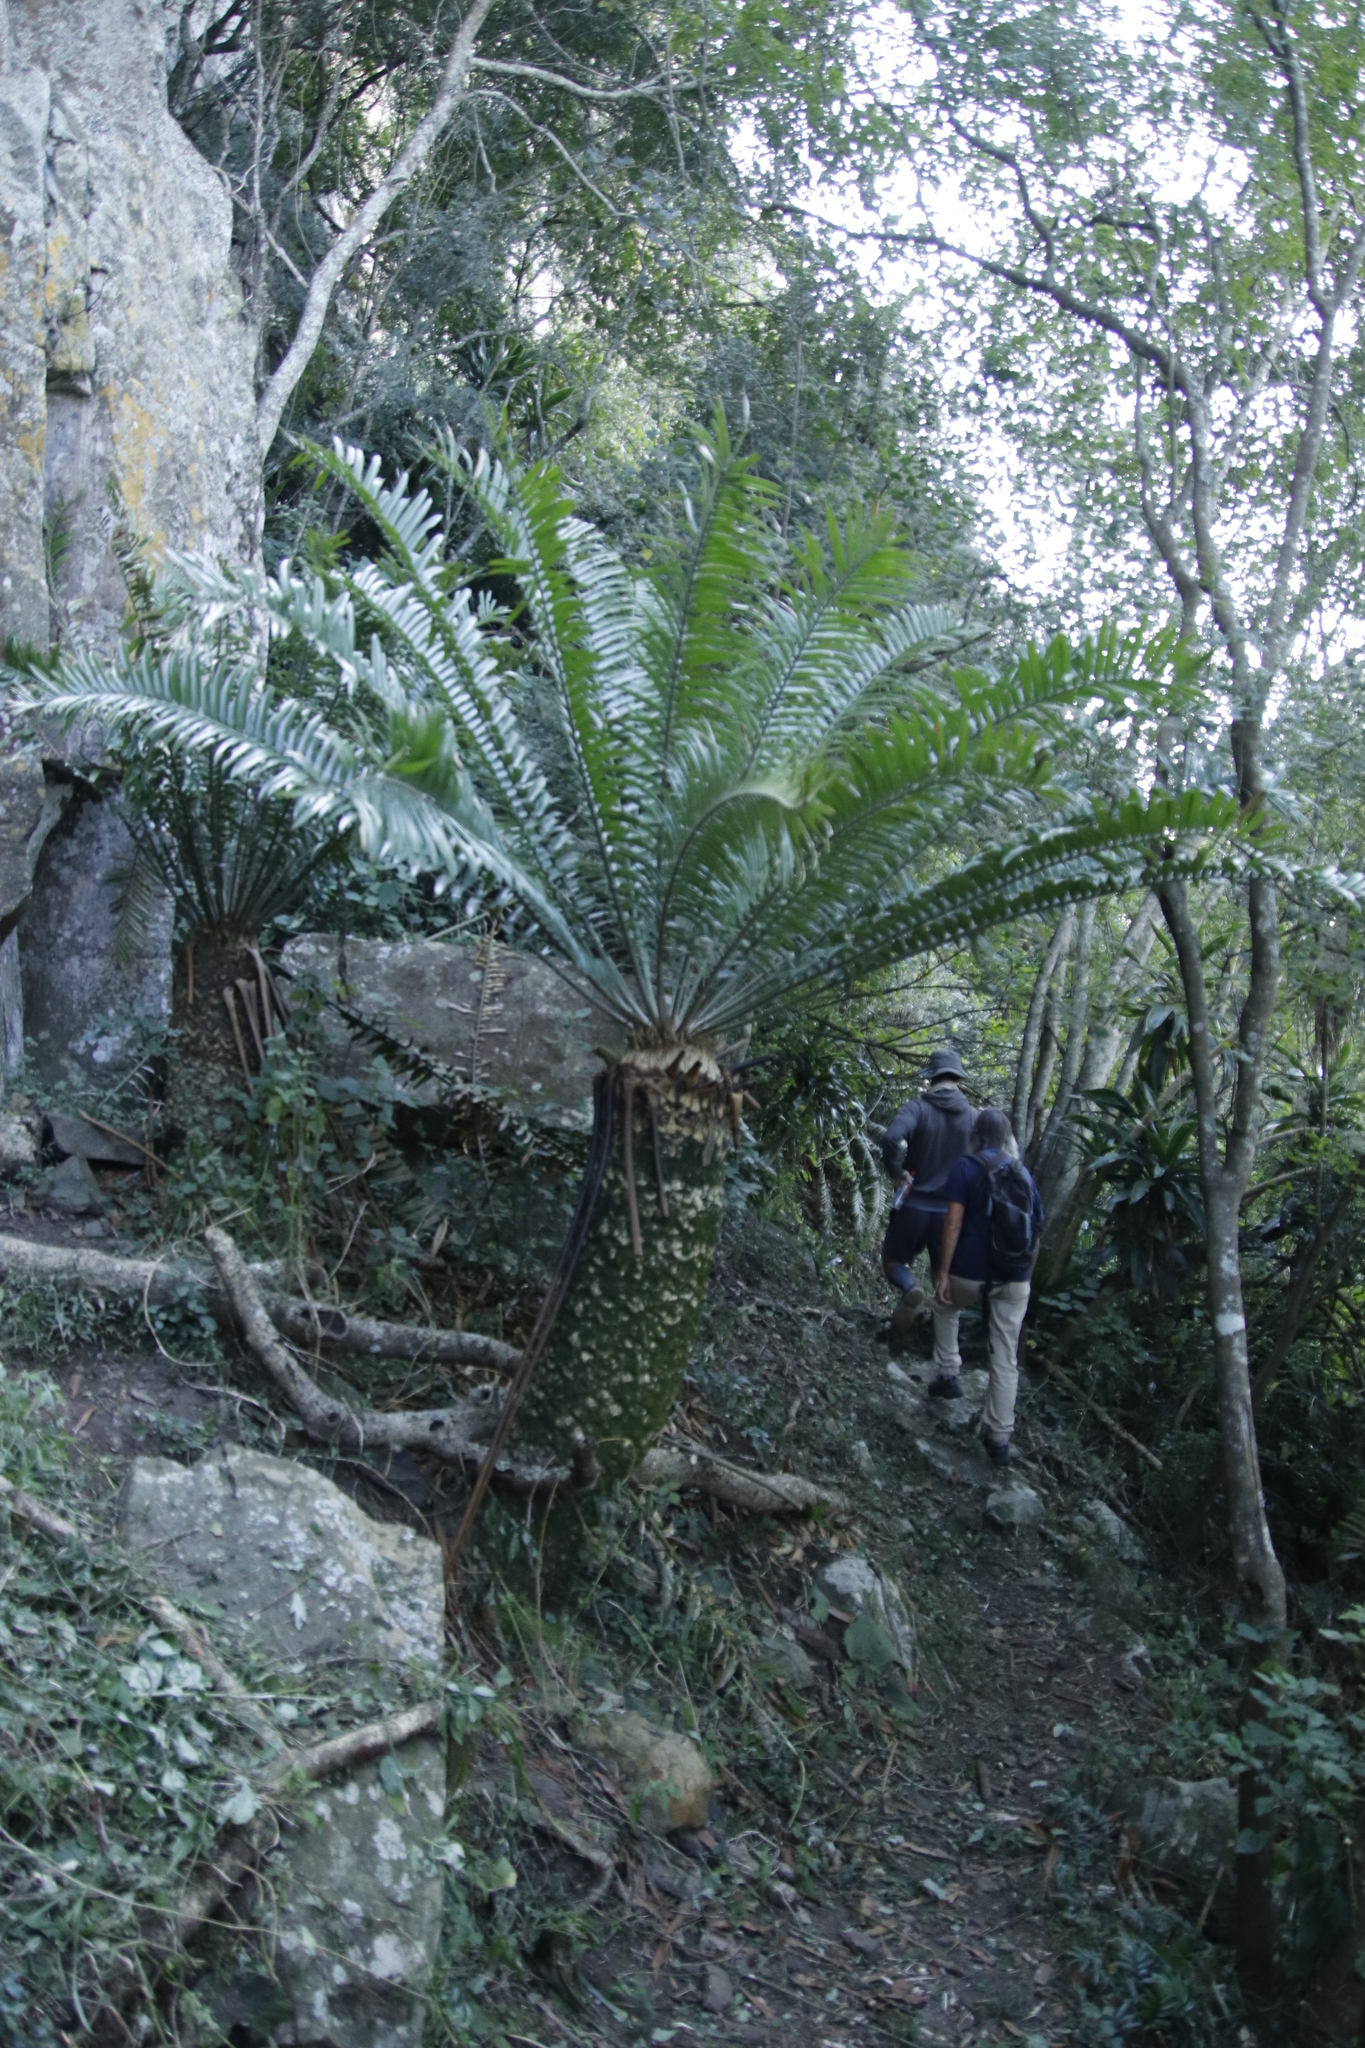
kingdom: Plantae
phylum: Tracheophyta
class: Cycadopsida
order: Cycadales
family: Zamiaceae
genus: Encephalartos
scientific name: Encephalartos natalensis
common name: Natal cycad
